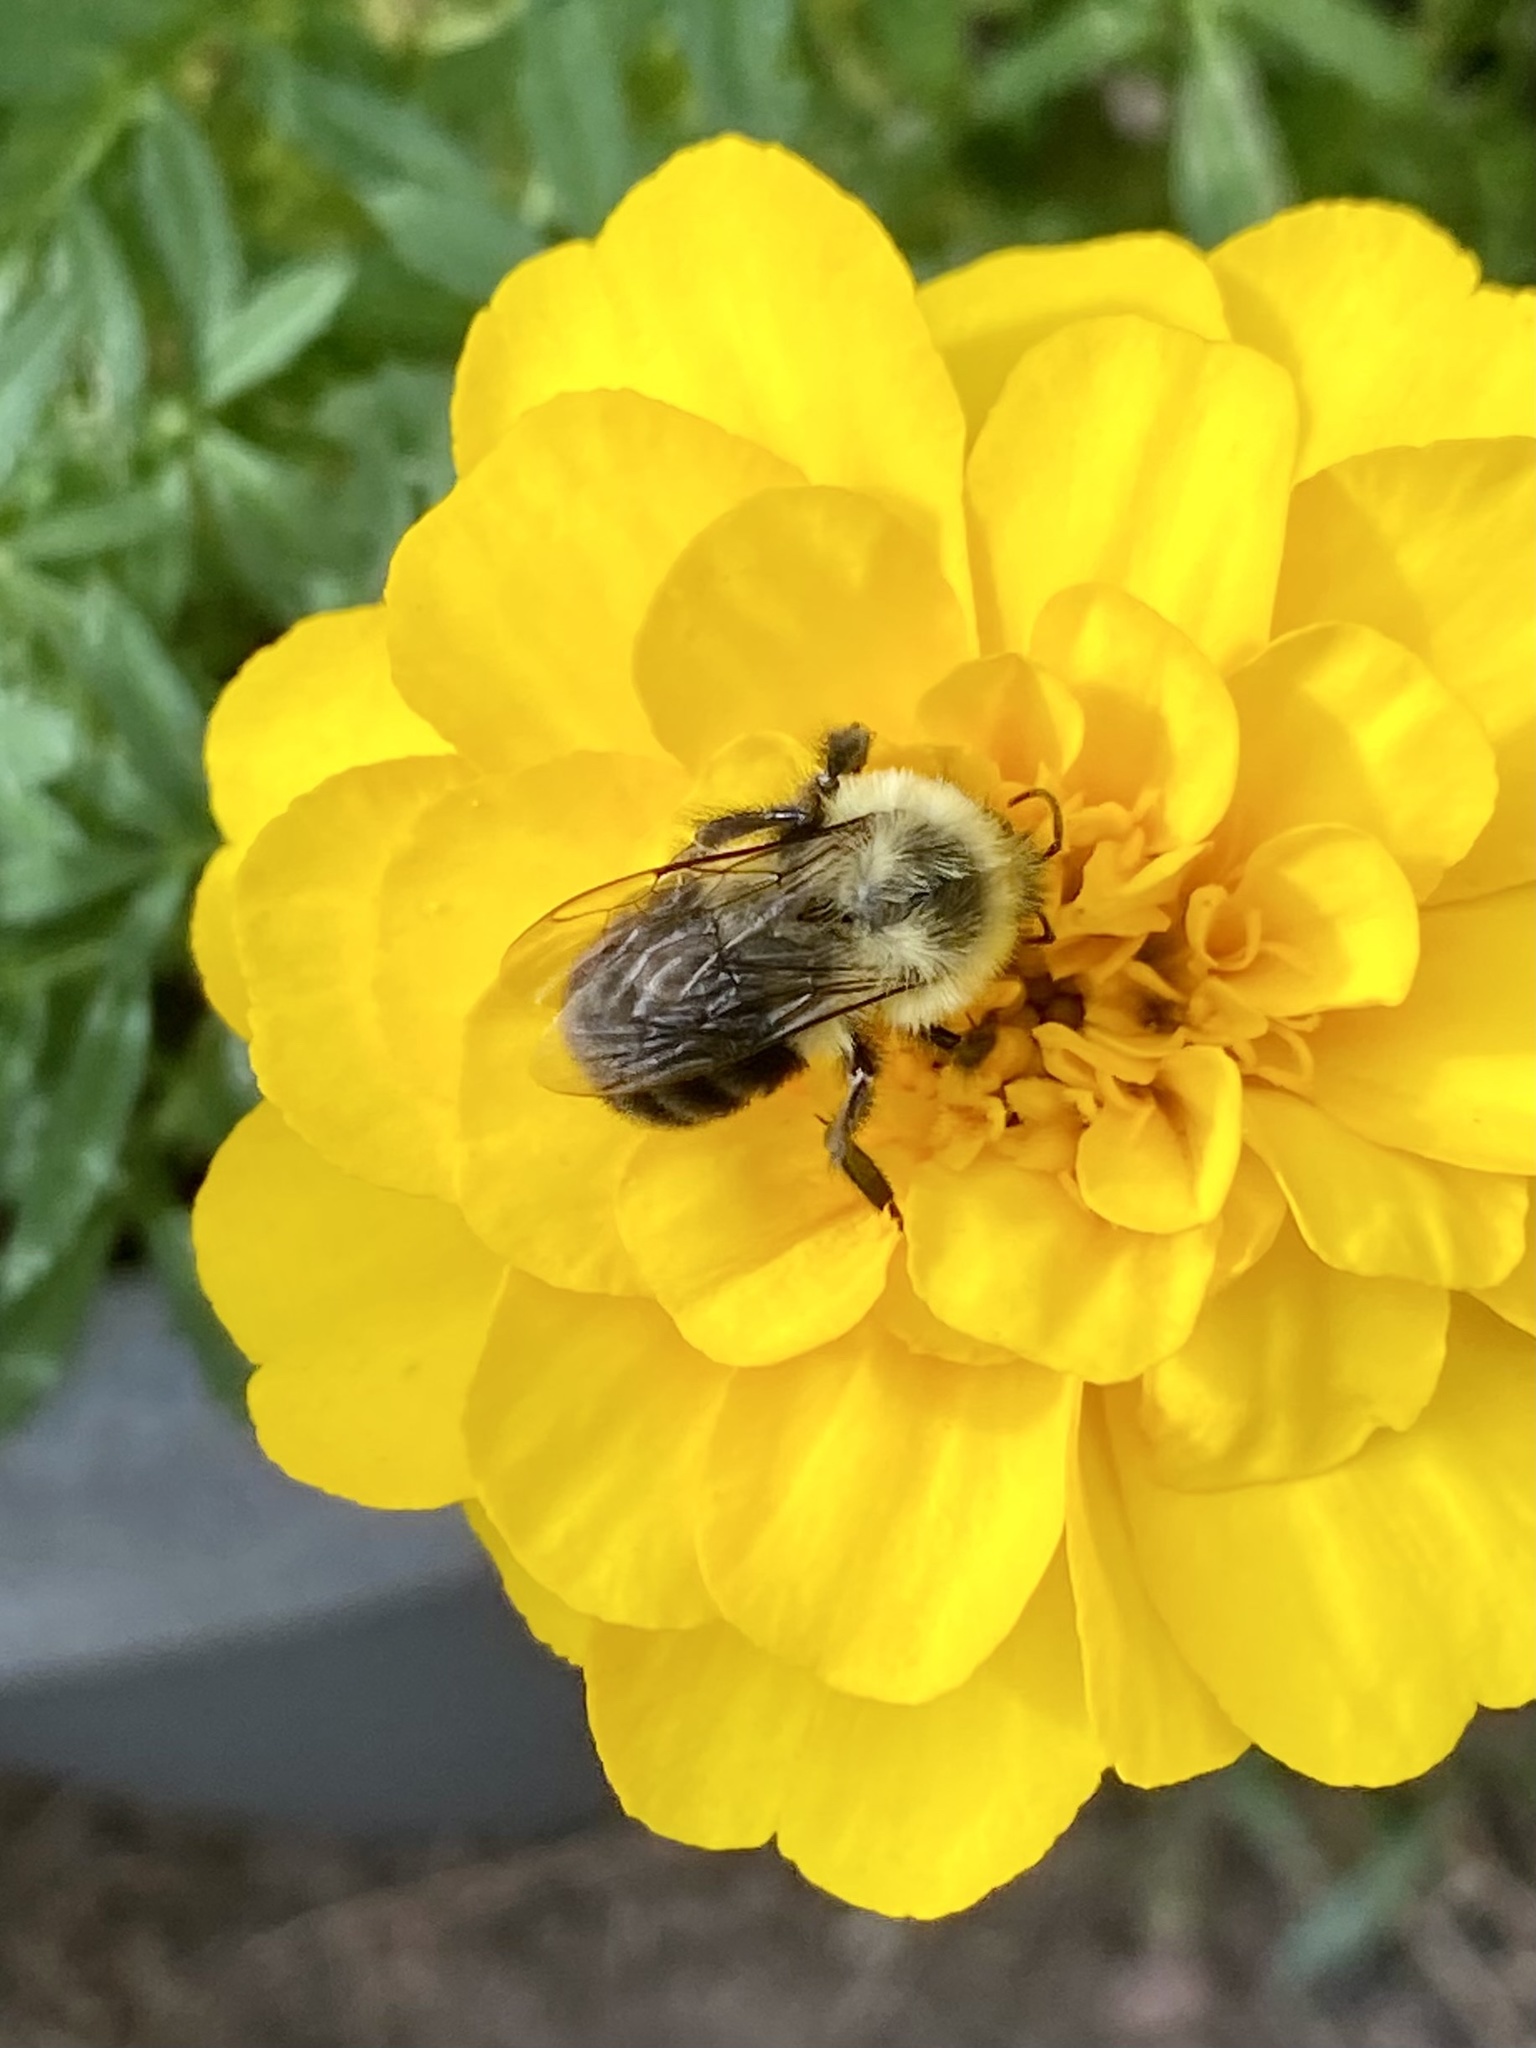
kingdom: Animalia
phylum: Arthropoda
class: Insecta
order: Hymenoptera
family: Apidae
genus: Bombus
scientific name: Bombus impatiens
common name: Common eastern bumble bee
